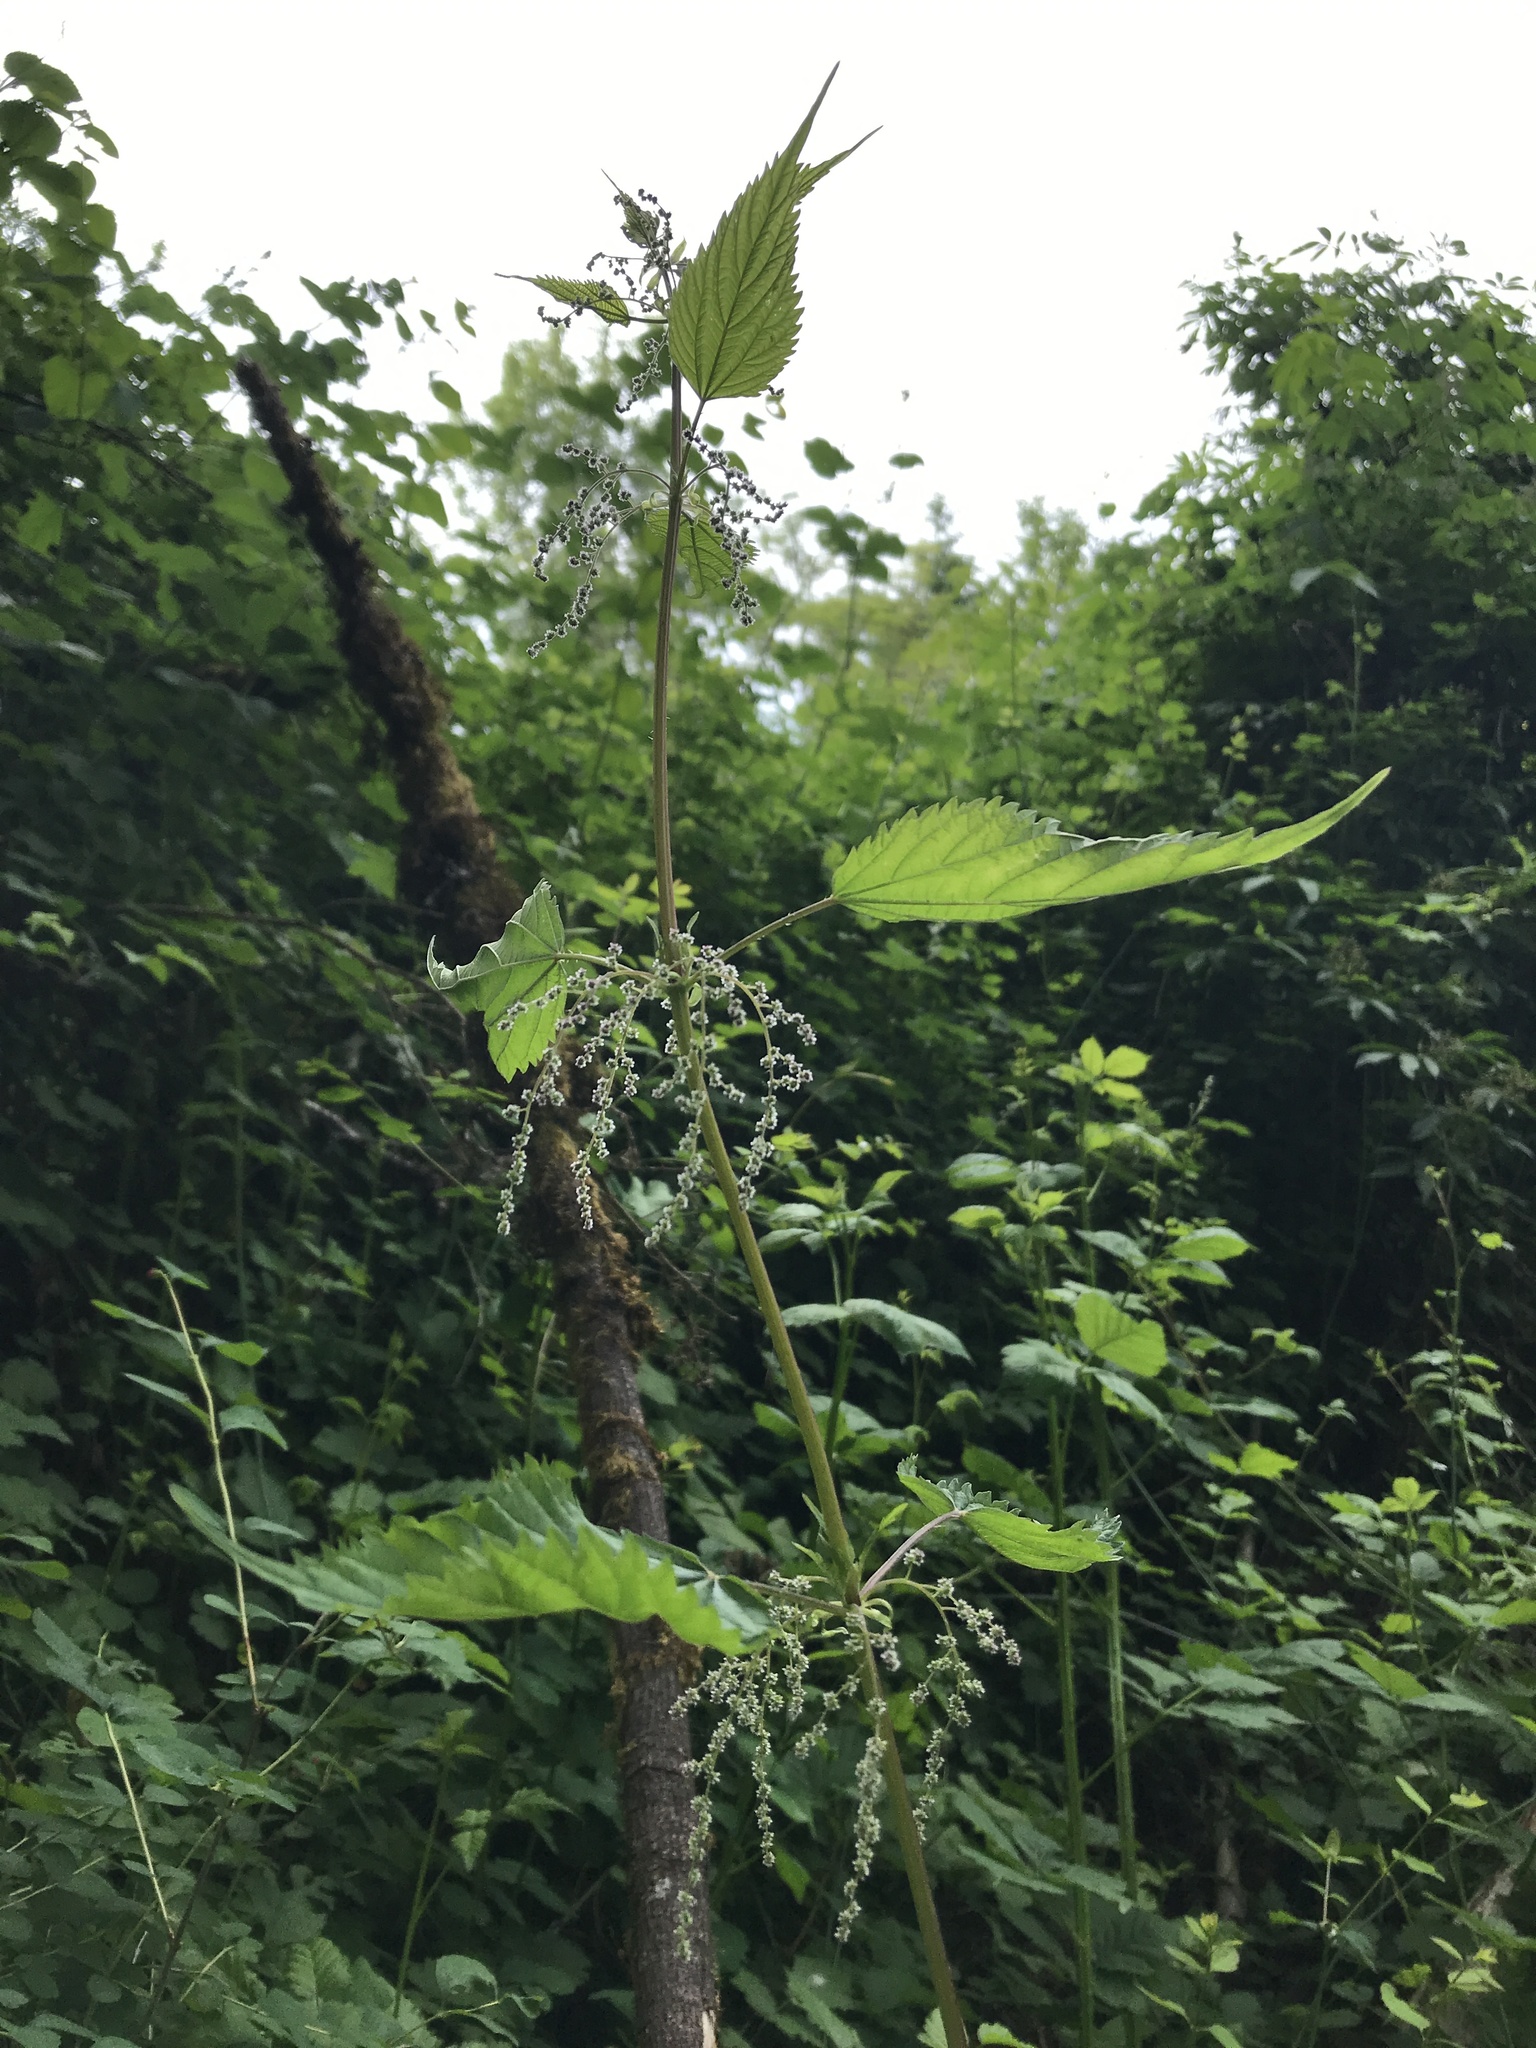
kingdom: Plantae
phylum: Tracheophyta
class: Magnoliopsida
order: Rosales
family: Urticaceae
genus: Urtica
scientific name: Urtica gracilis
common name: Slender stinging nettle
